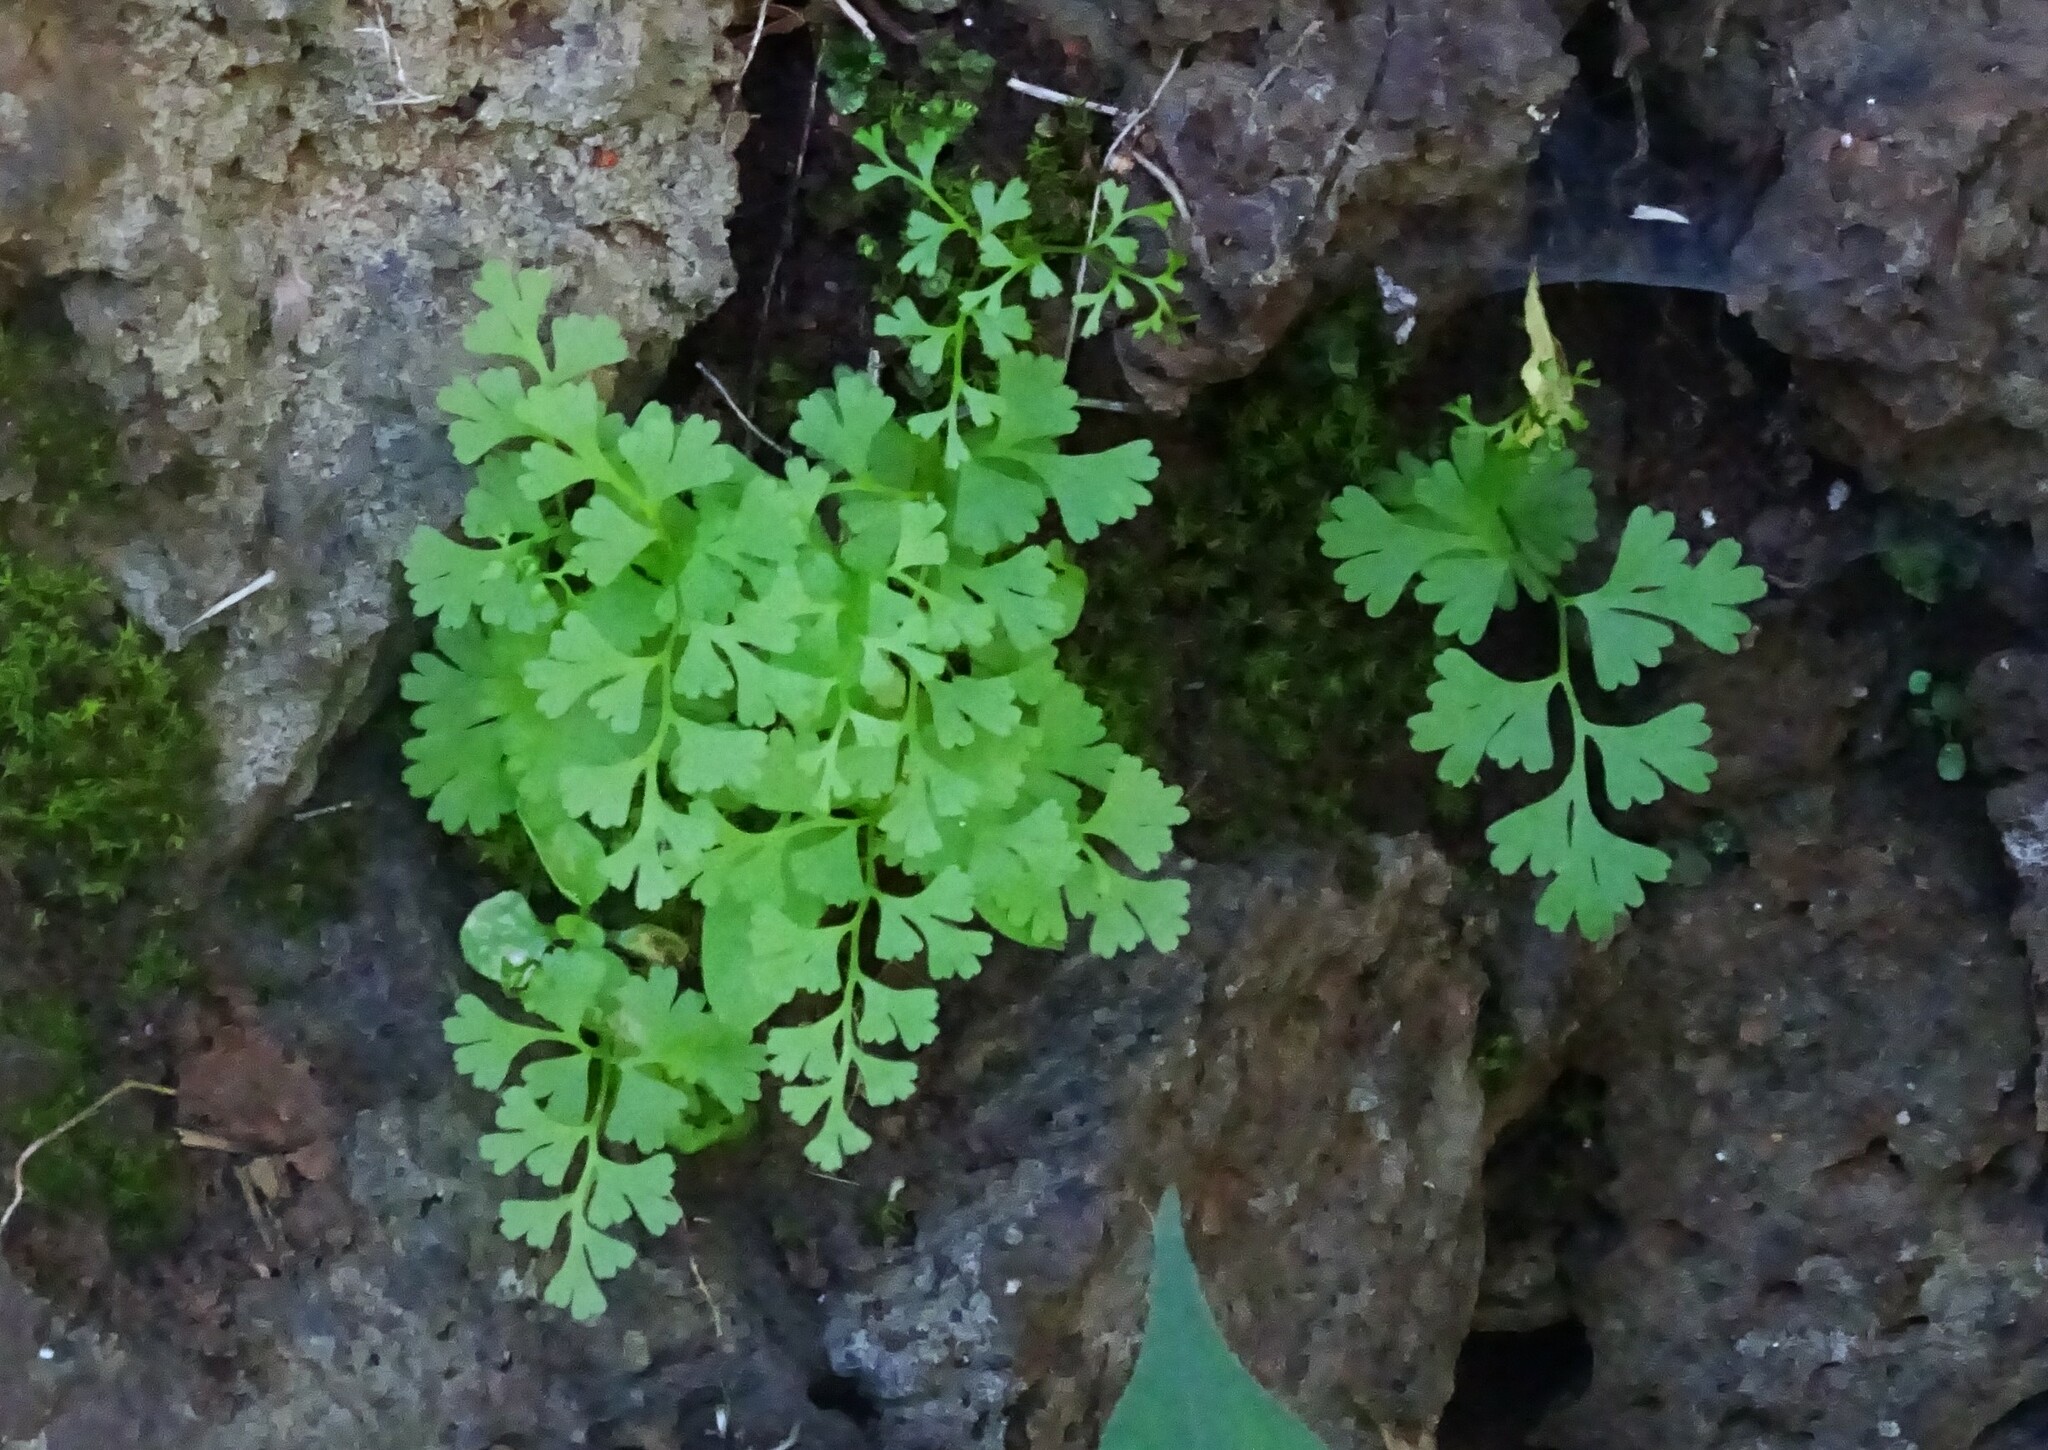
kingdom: Plantae
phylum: Tracheophyta
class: Polypodiopsida
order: Polypodiales
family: Pteridaceae
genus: Anogramma
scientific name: Anogramma leptophylla
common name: Jersey fern
